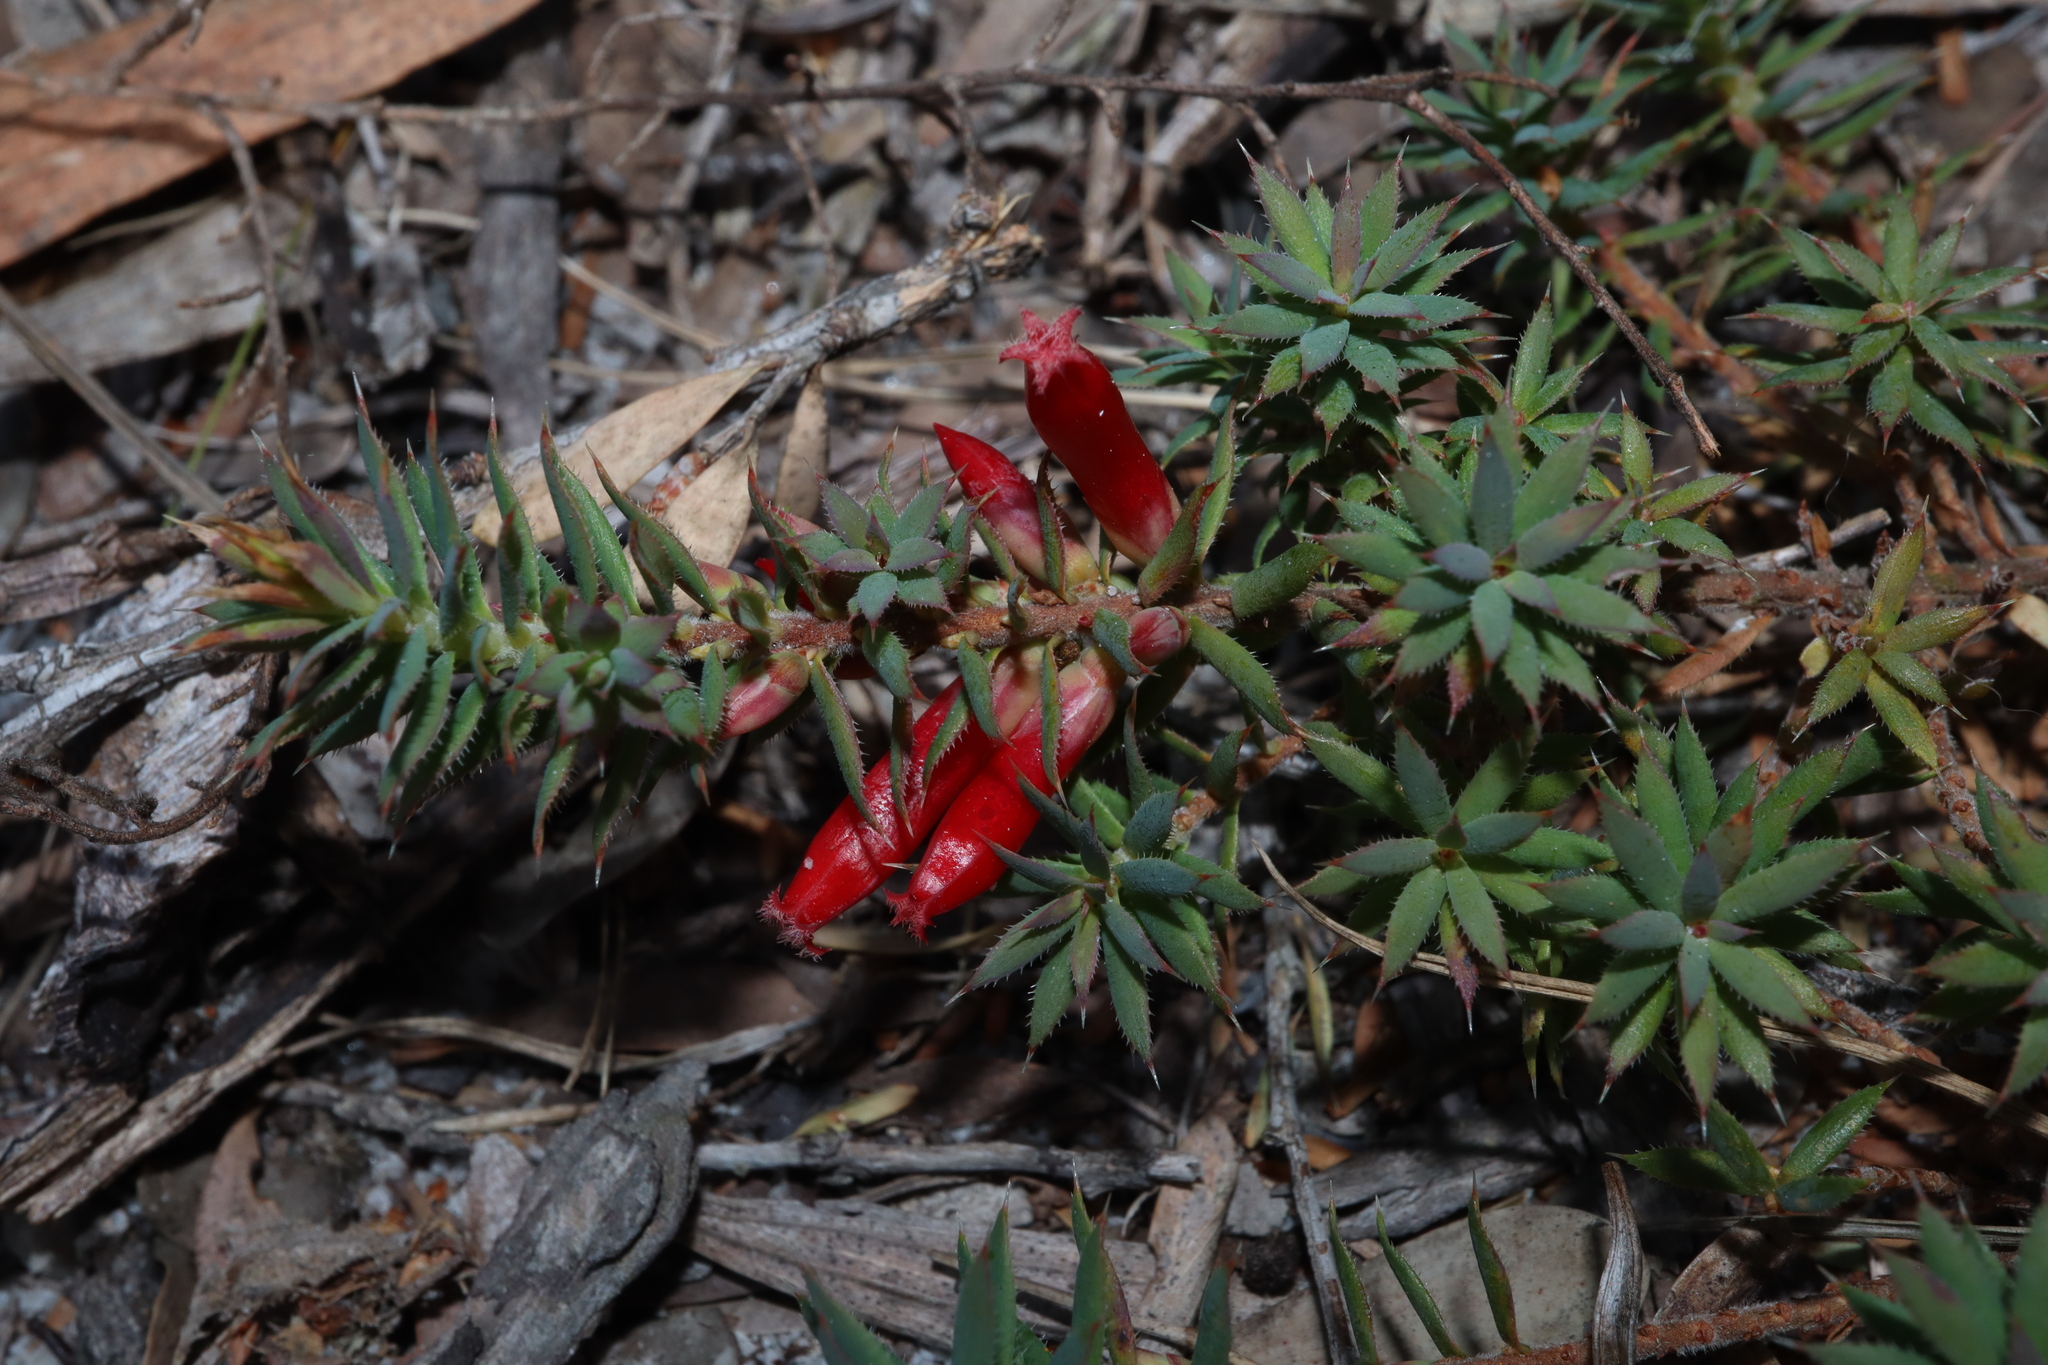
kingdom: Plantae
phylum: Tracheophyta
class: Magnoliopsida
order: Ericales
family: Ericaceae
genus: Styphelia
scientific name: Styphelia humifusa
